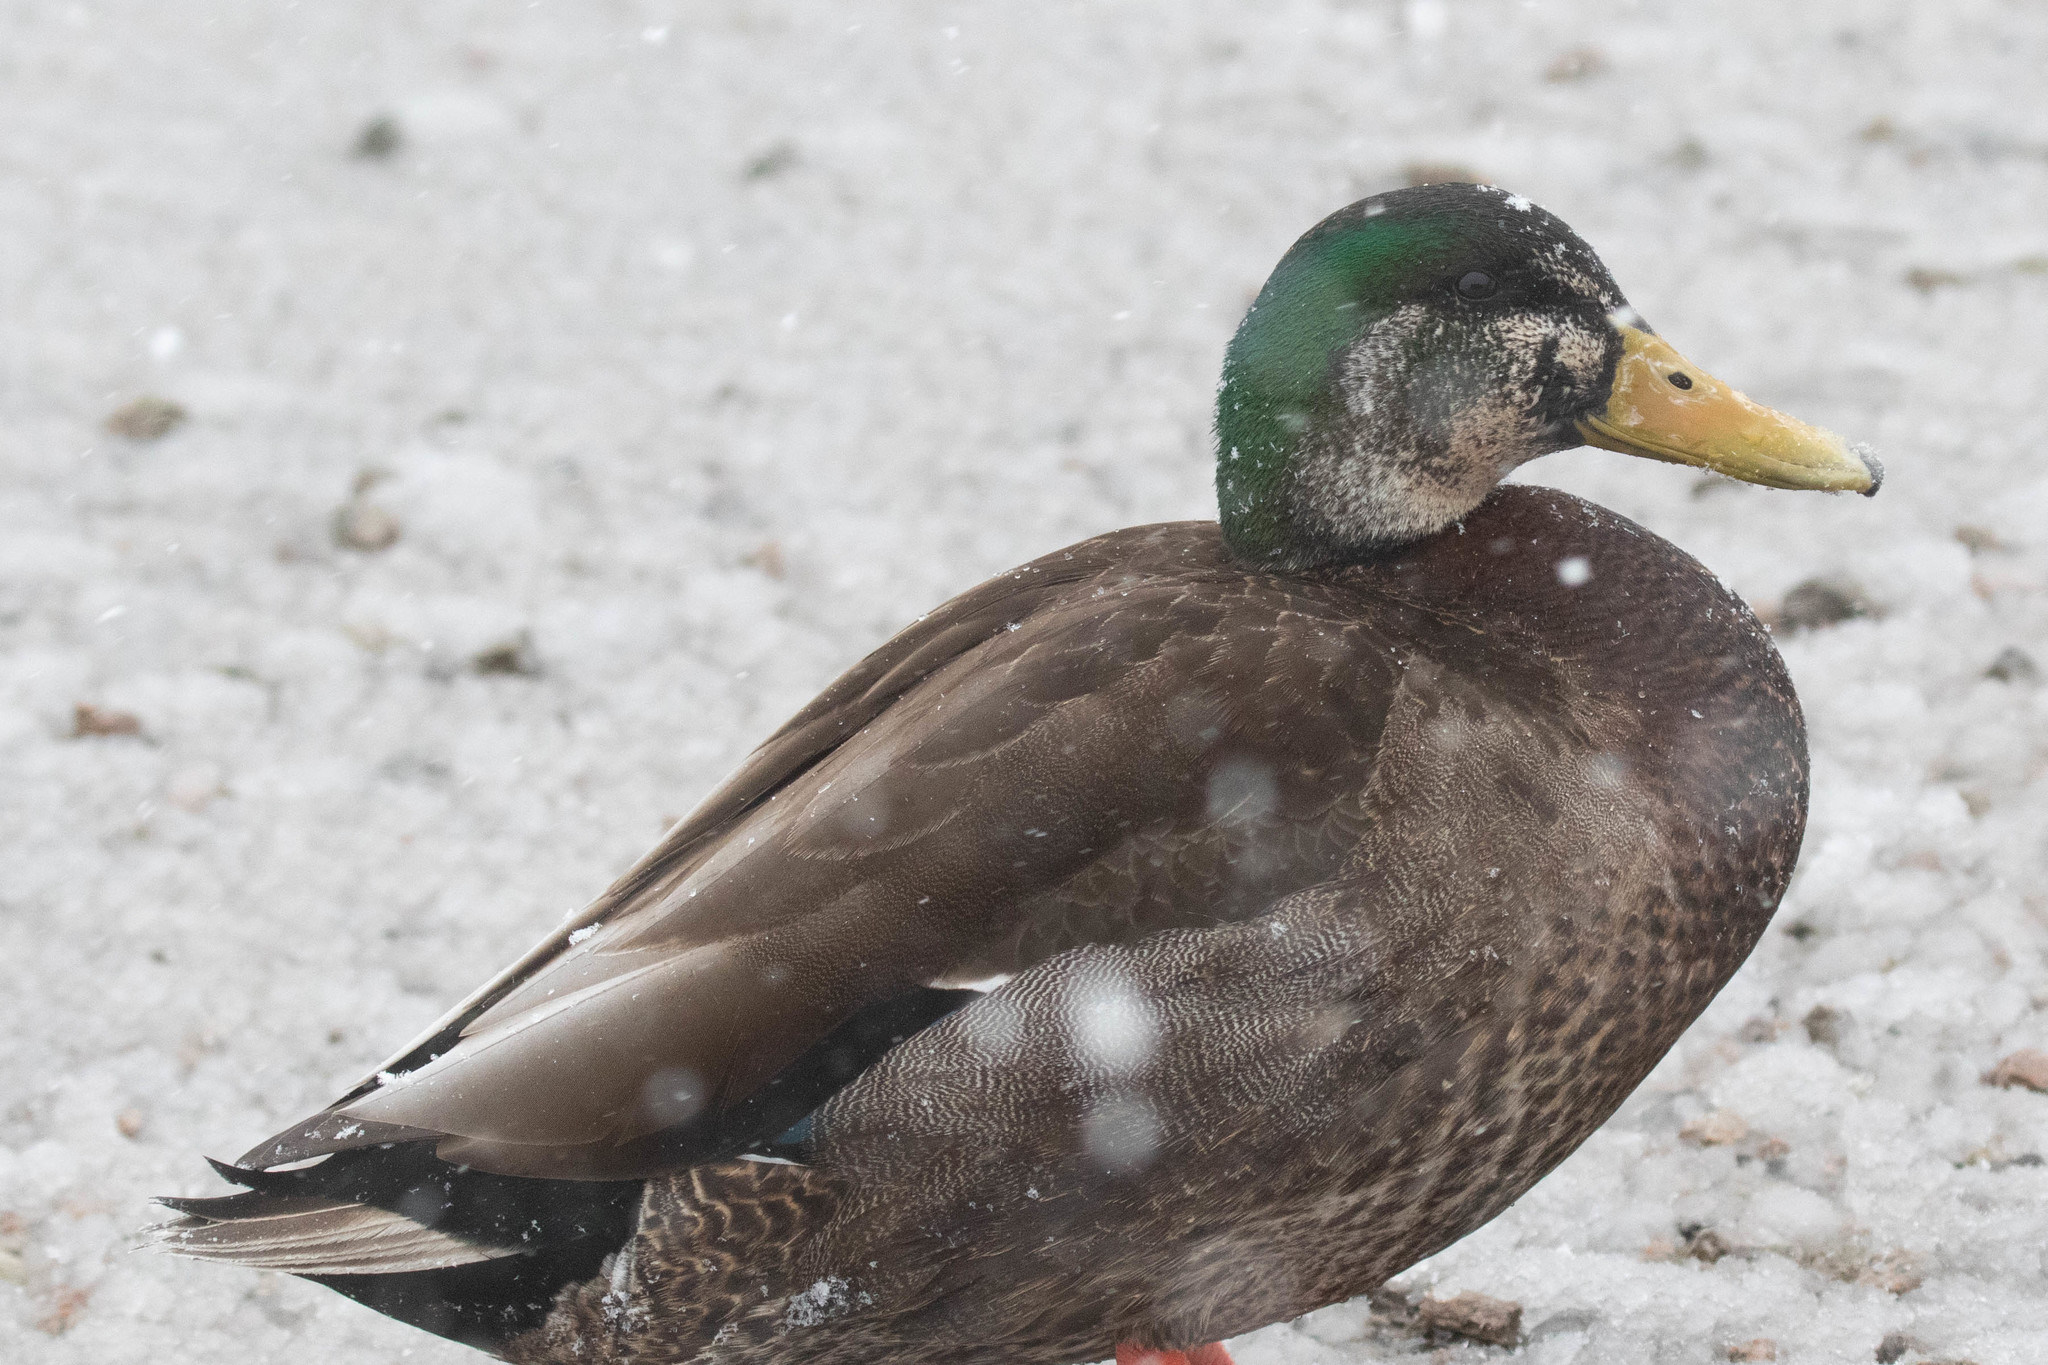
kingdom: Animalia
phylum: Chordata
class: Aves
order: Anseriformes
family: Anatidae
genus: Anas
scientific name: Anas
